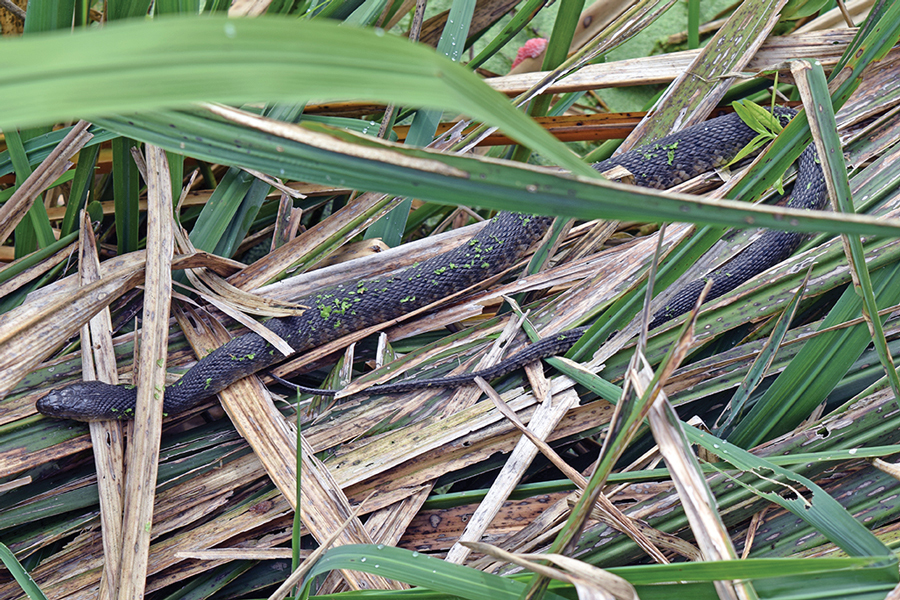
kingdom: Animalia
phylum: Chordata
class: Squamata
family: Colubridae
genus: Nerodia
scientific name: Nerodia floridana
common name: Florida green watersnake
